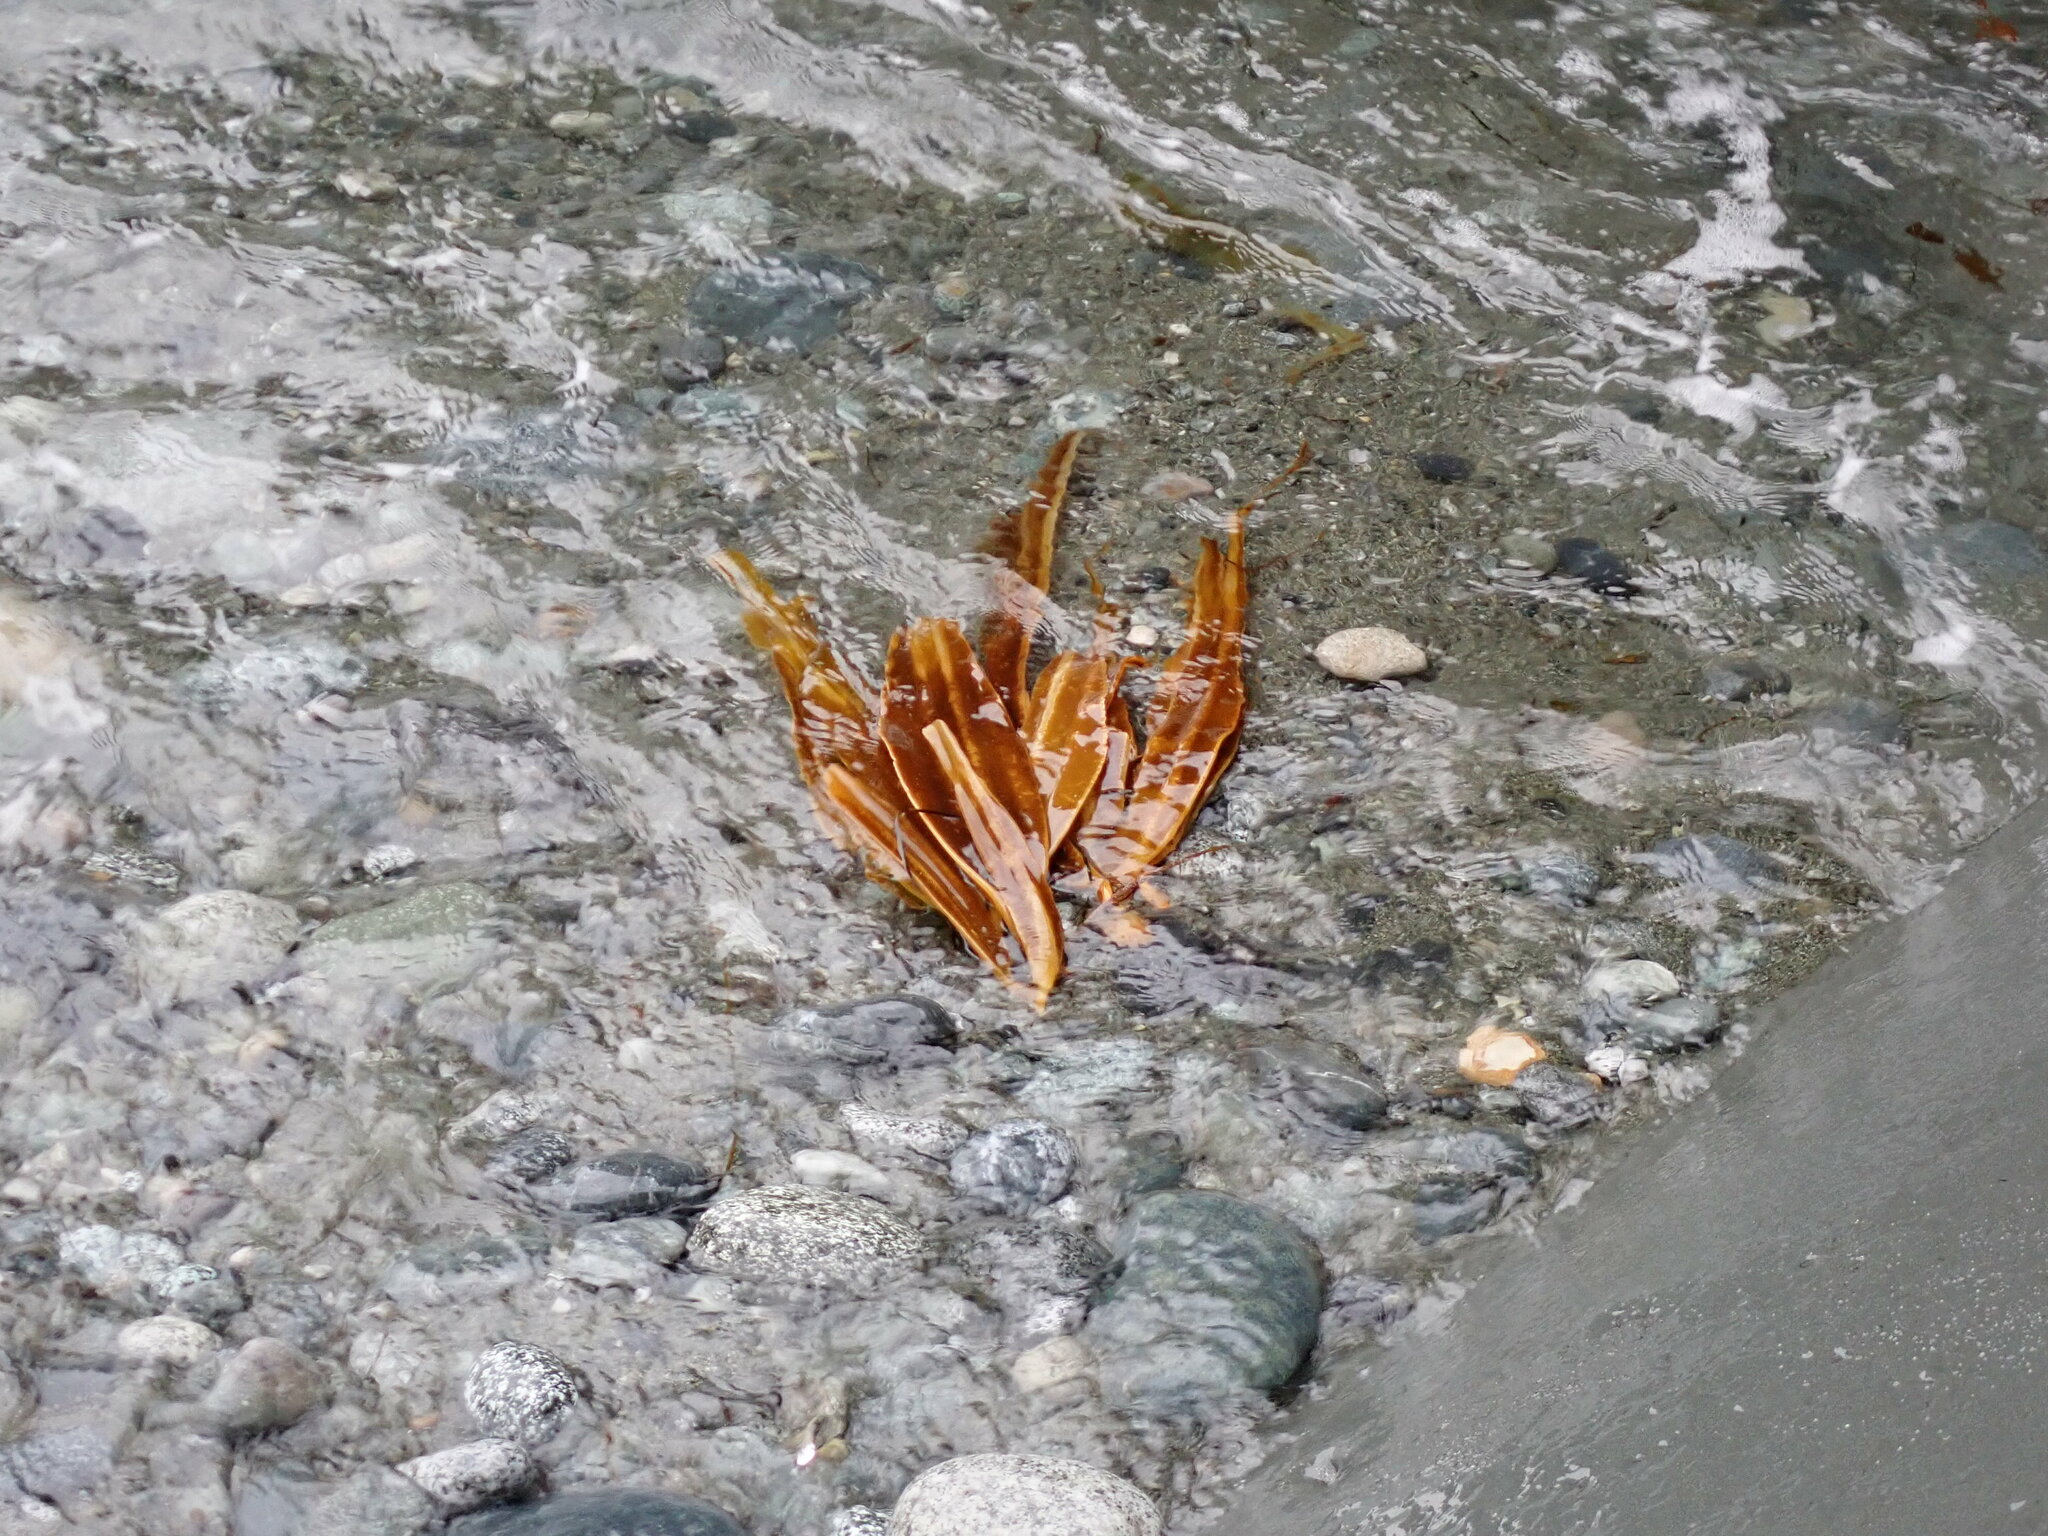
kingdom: Chromista
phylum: Ochrophyta
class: Phaeophyceae
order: Laminariales
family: Laminariaceae
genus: Cymathaere
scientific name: Cymathaere triplicata
